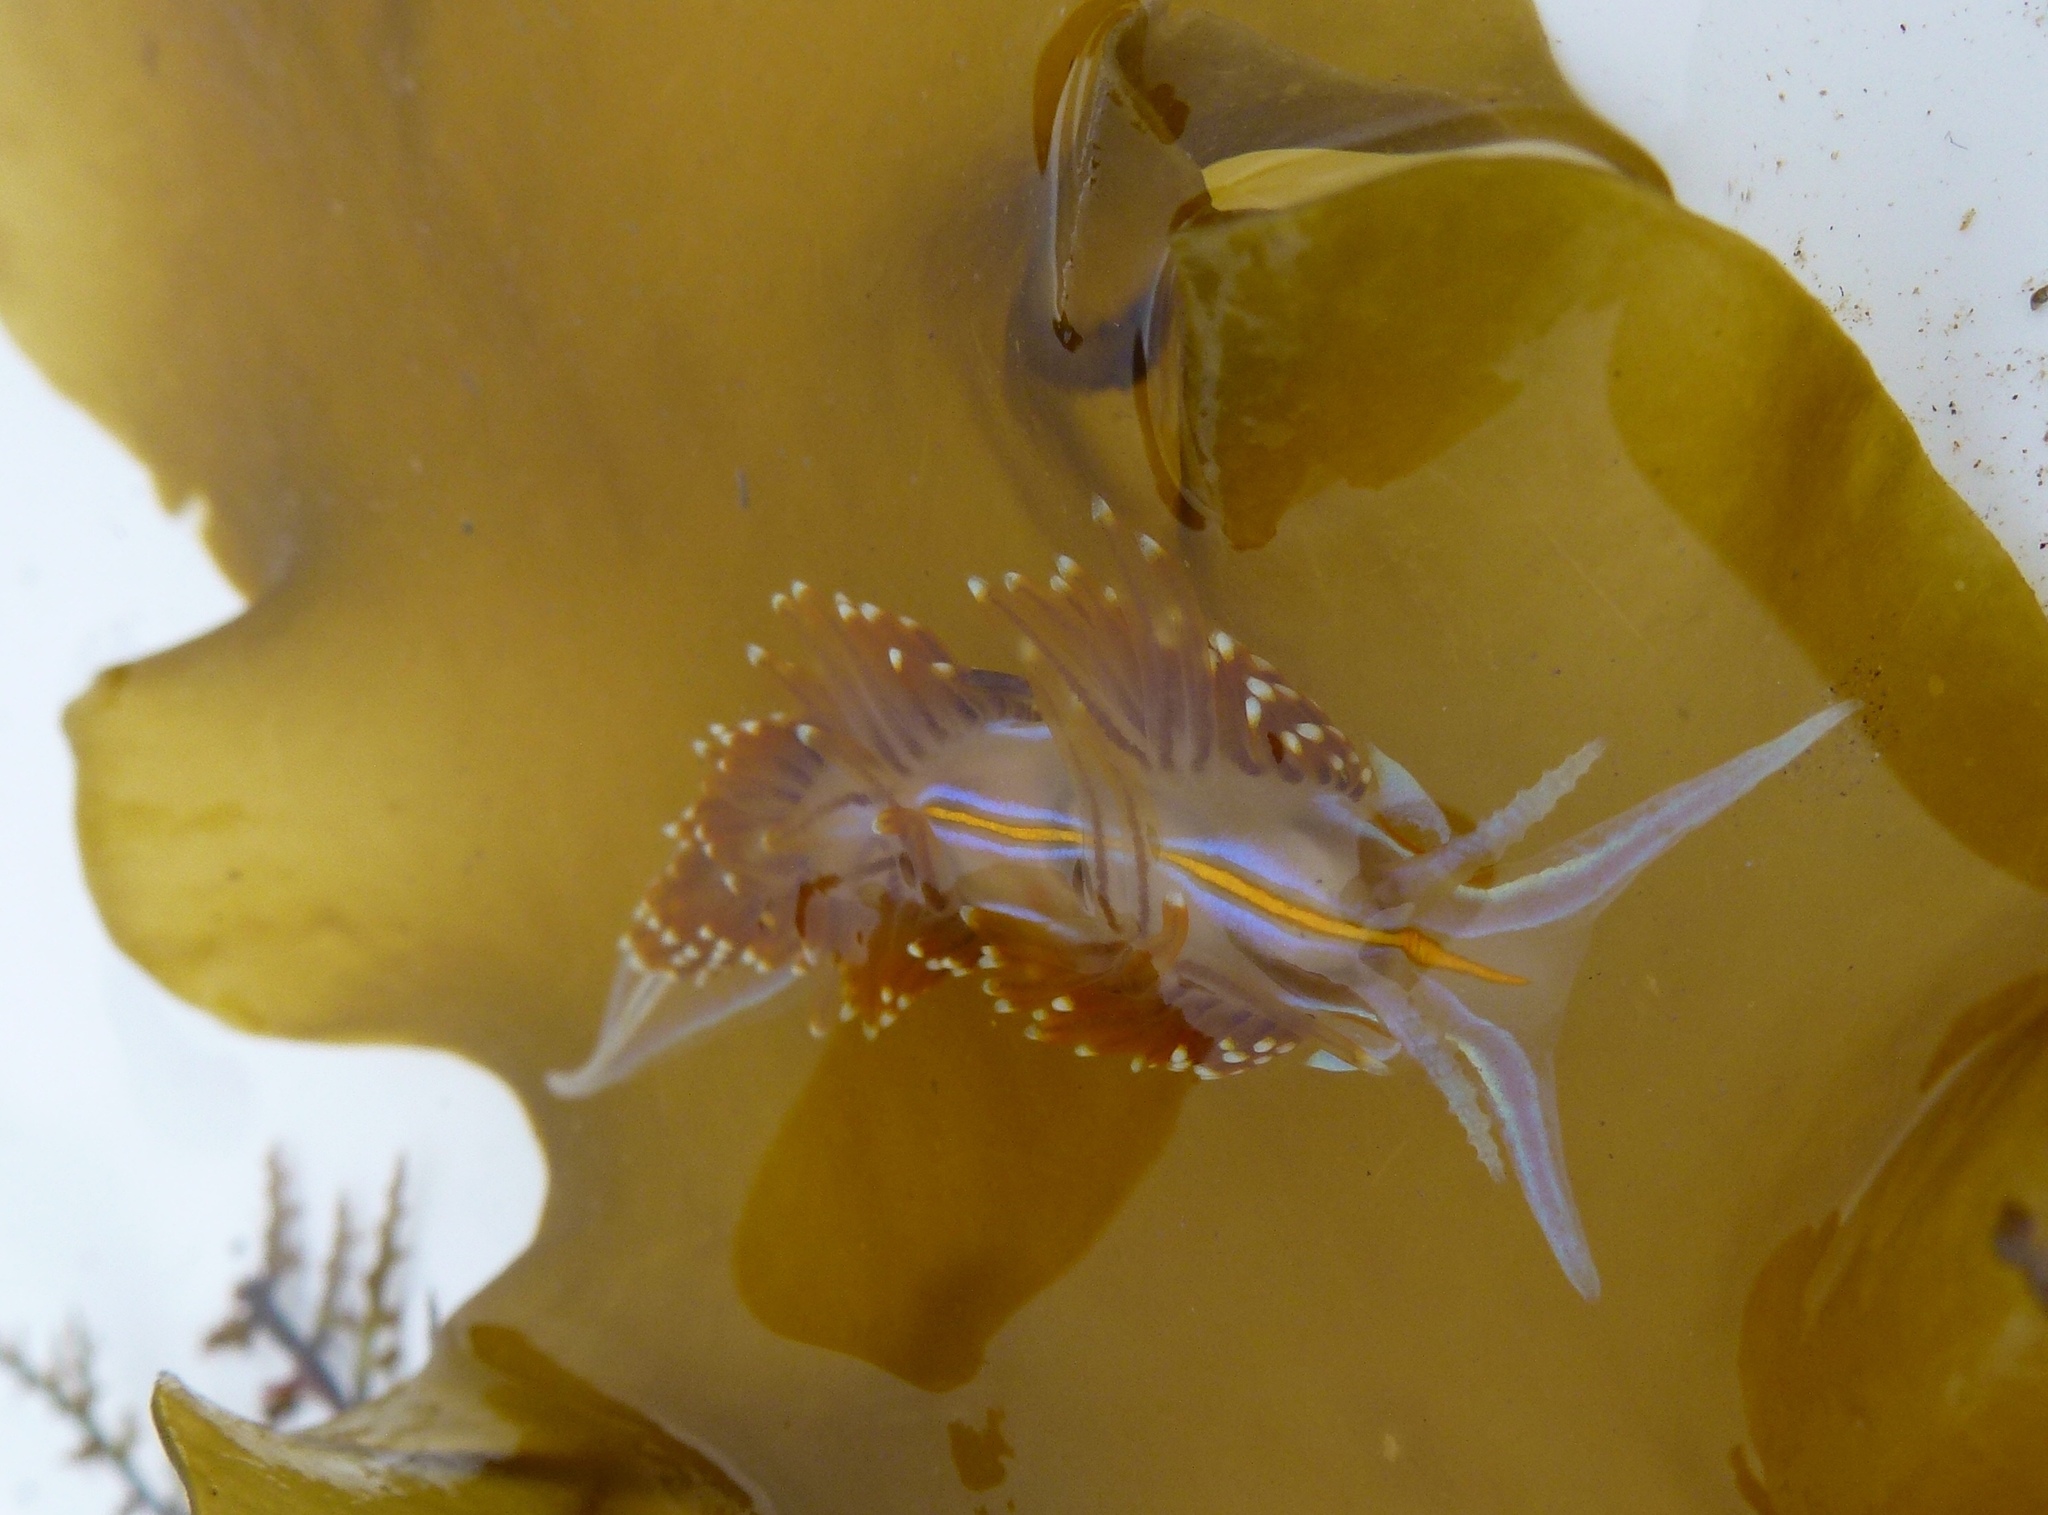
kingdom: Animalia
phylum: Mollusca
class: Gastropoda
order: Nudibranchia
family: Myrrhinidae
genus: Hermissenda
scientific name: Hermissenda opalescens
